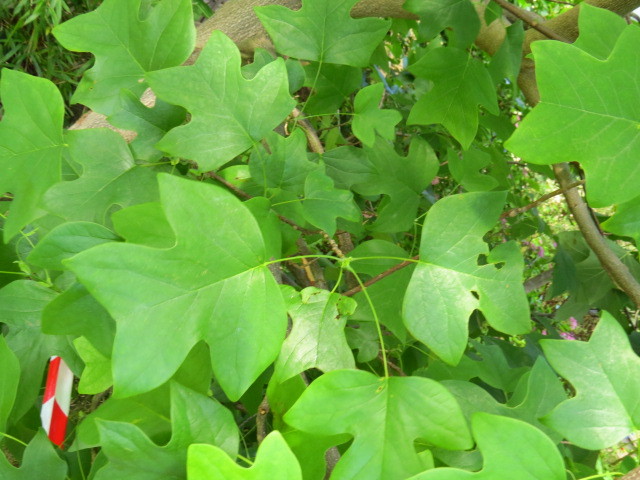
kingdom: Plantae
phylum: Tracheophyta
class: Magnoliopsida
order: Magnoliales
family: Magnoliaceae
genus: Liriodendron
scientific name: Liriodendron tulipifera
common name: Tulip tree
